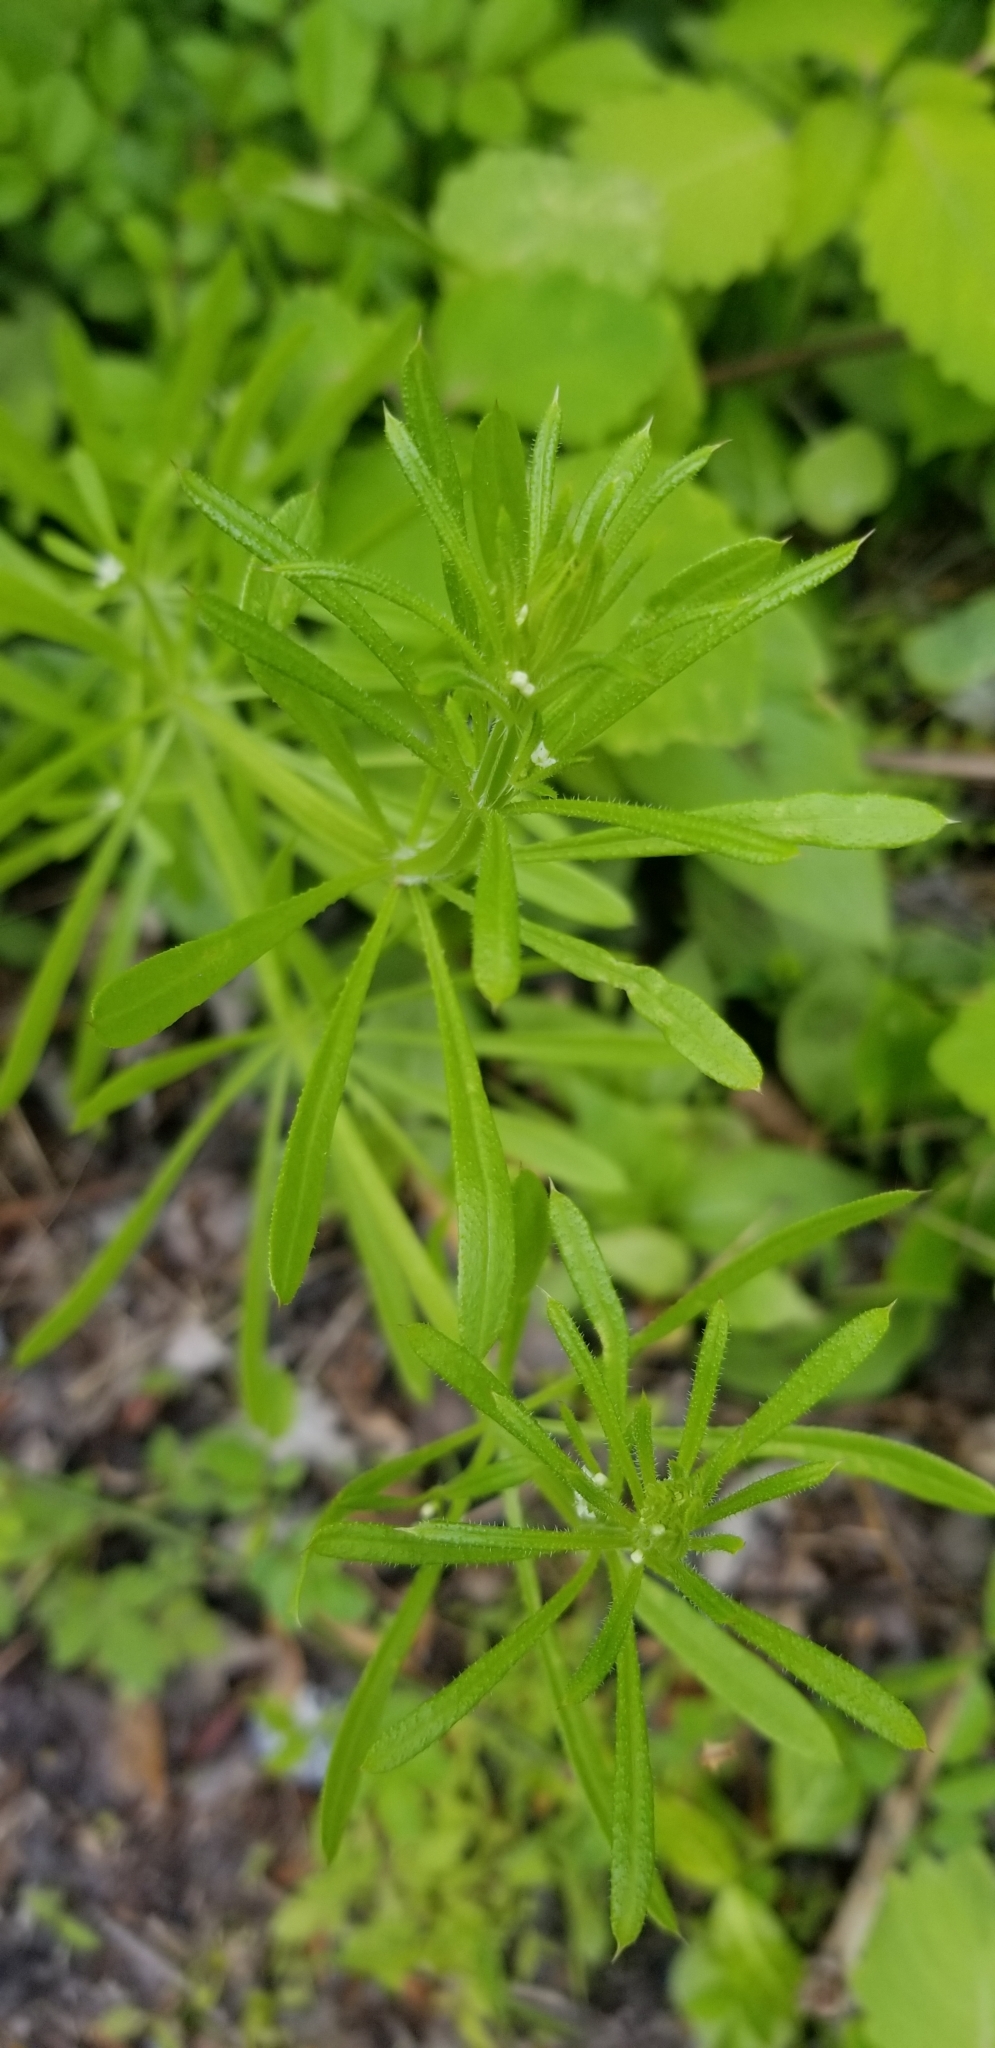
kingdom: Plantae
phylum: Tracheophyta
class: Magnoliopsida
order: Gentianales
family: Rubiaceae
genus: Galium
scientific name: Galium aparine
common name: Cleavers
